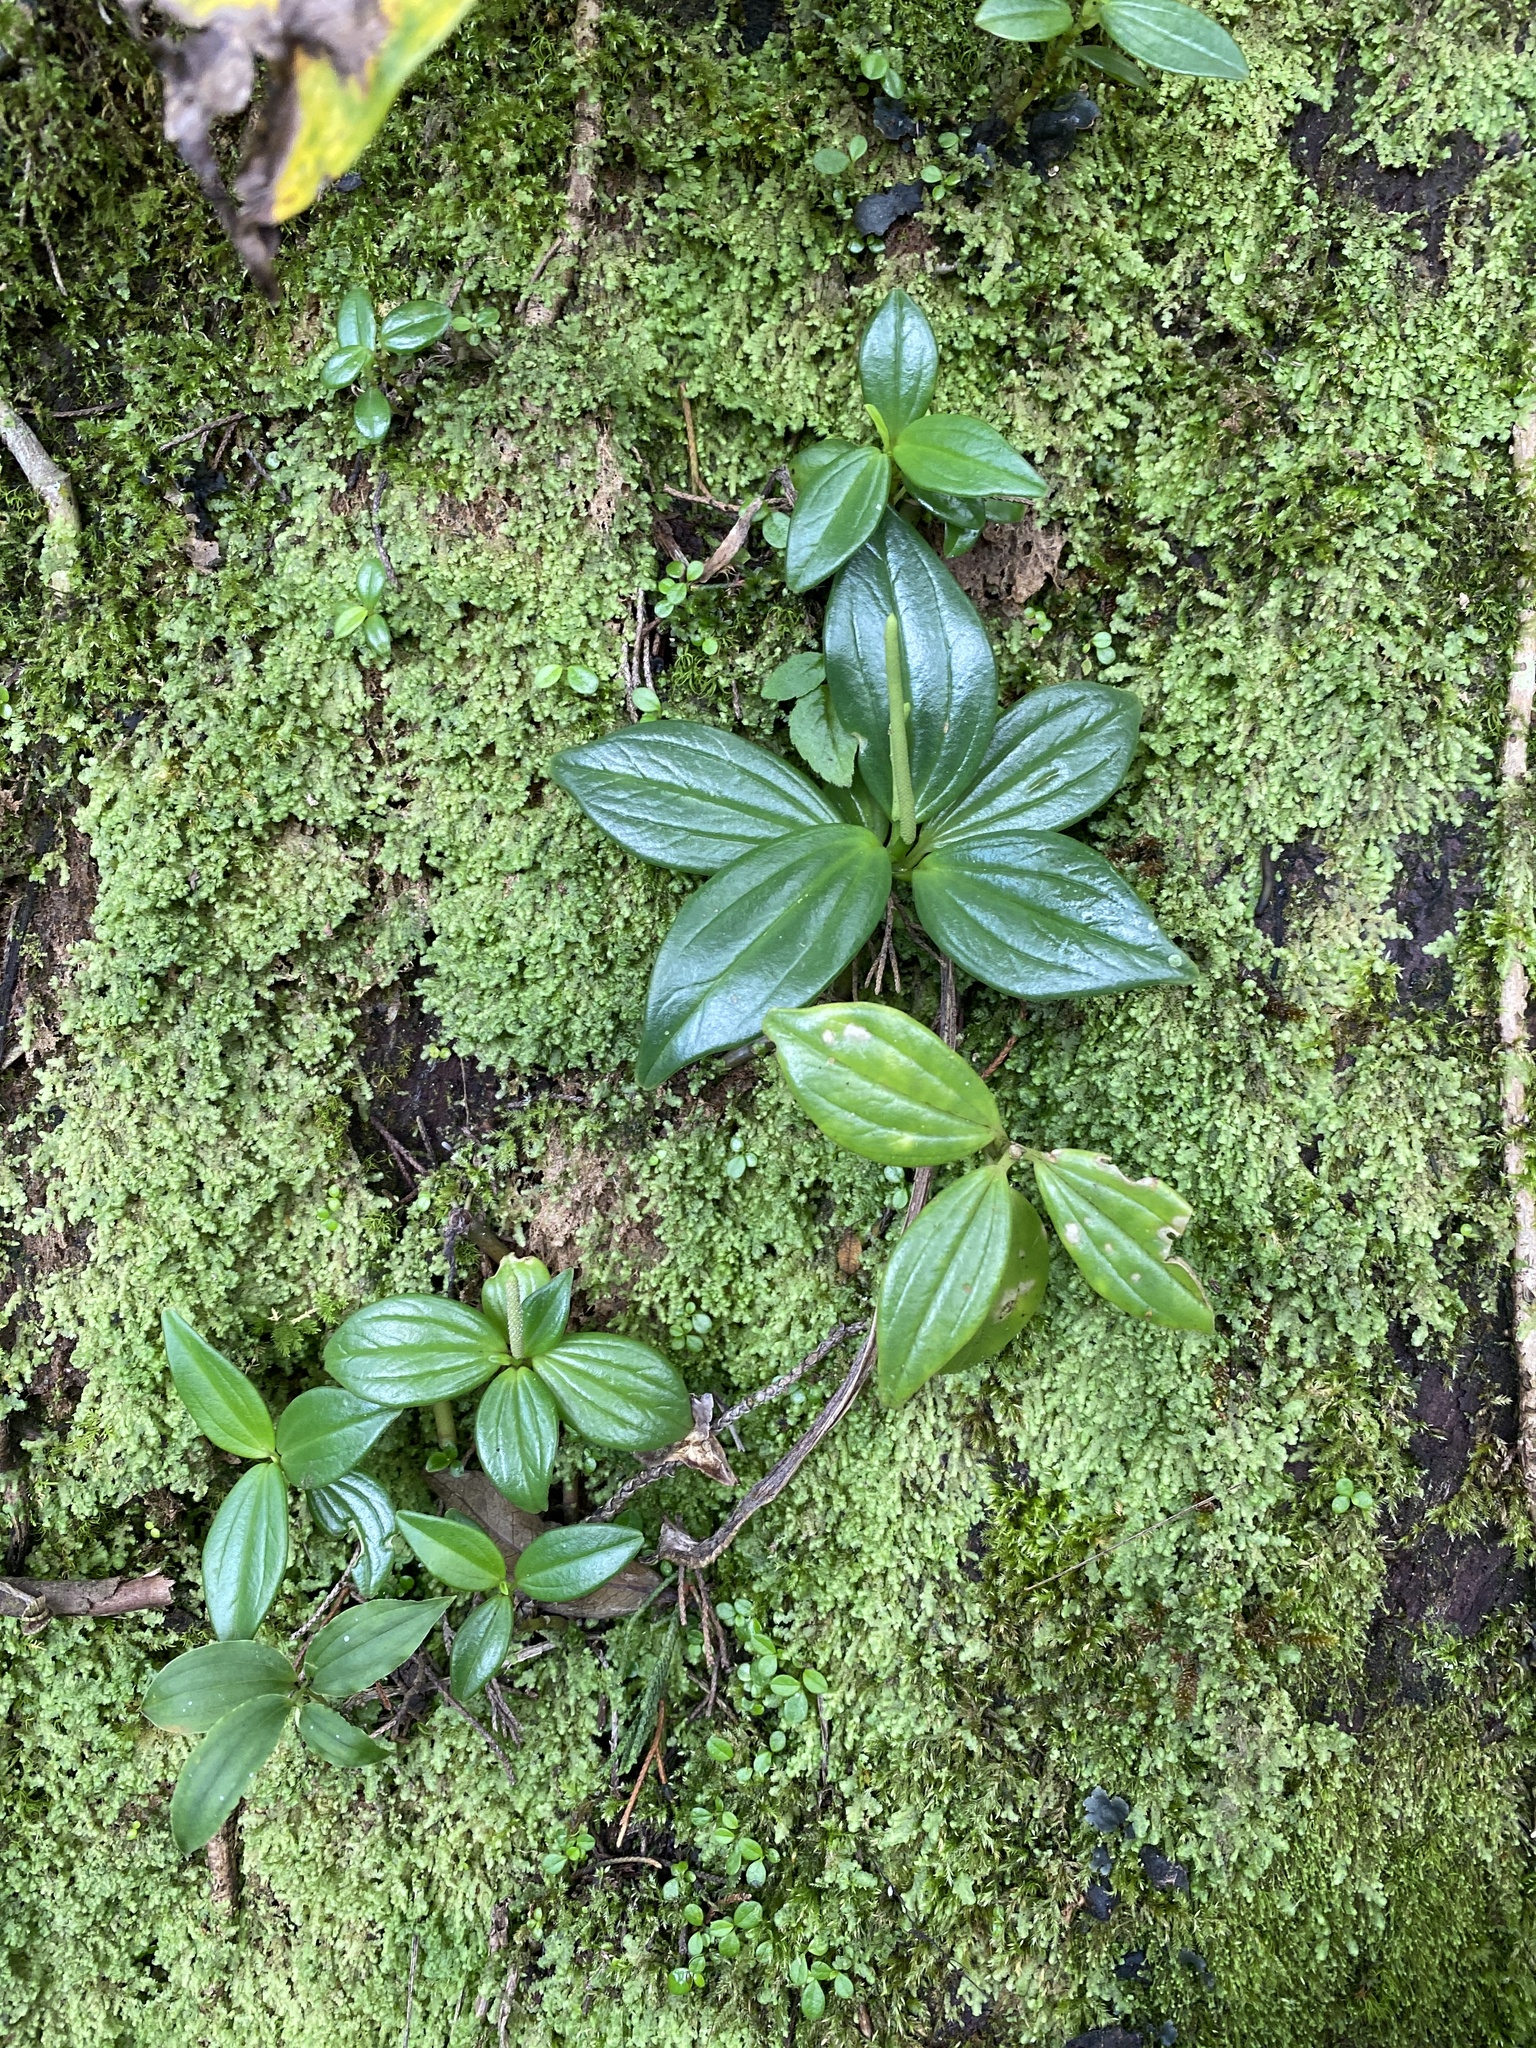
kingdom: Plantae
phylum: Tracheophyta
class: Magnoliopsida
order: Piperales
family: Piperaceae
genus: Peperomia
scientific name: Peperomia san-joseana
